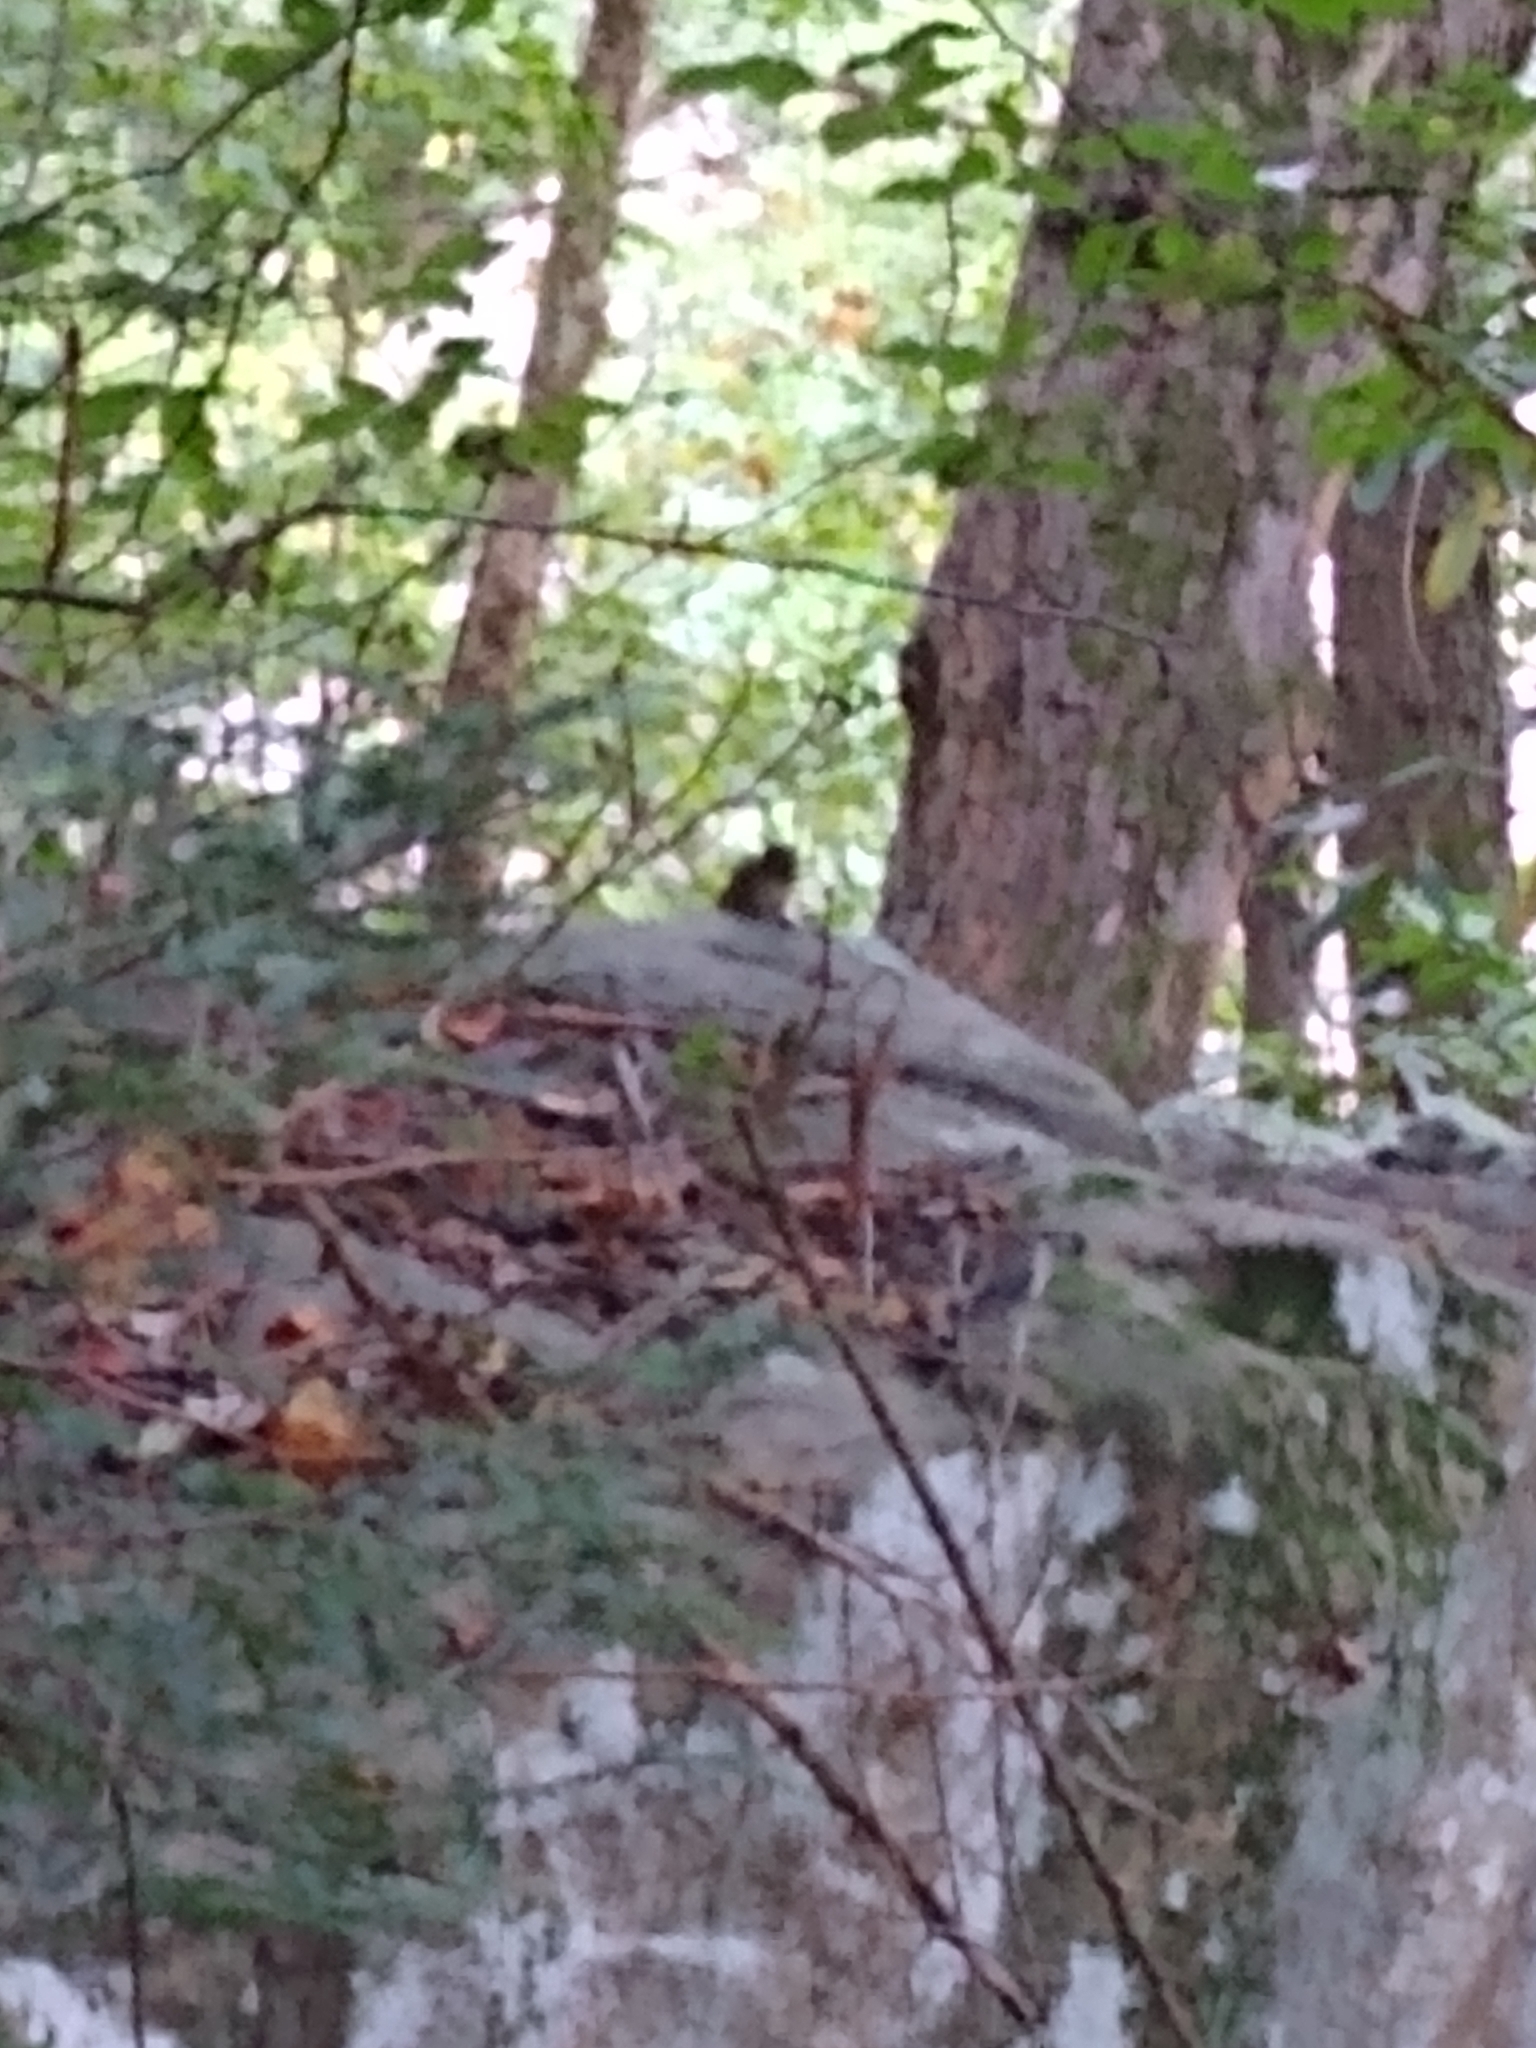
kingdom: Animalia
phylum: Chordata
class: Mammalia
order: Rodentia
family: Sciuridae
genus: Tamias
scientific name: Tamias striatus
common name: Eastern chipmunk
